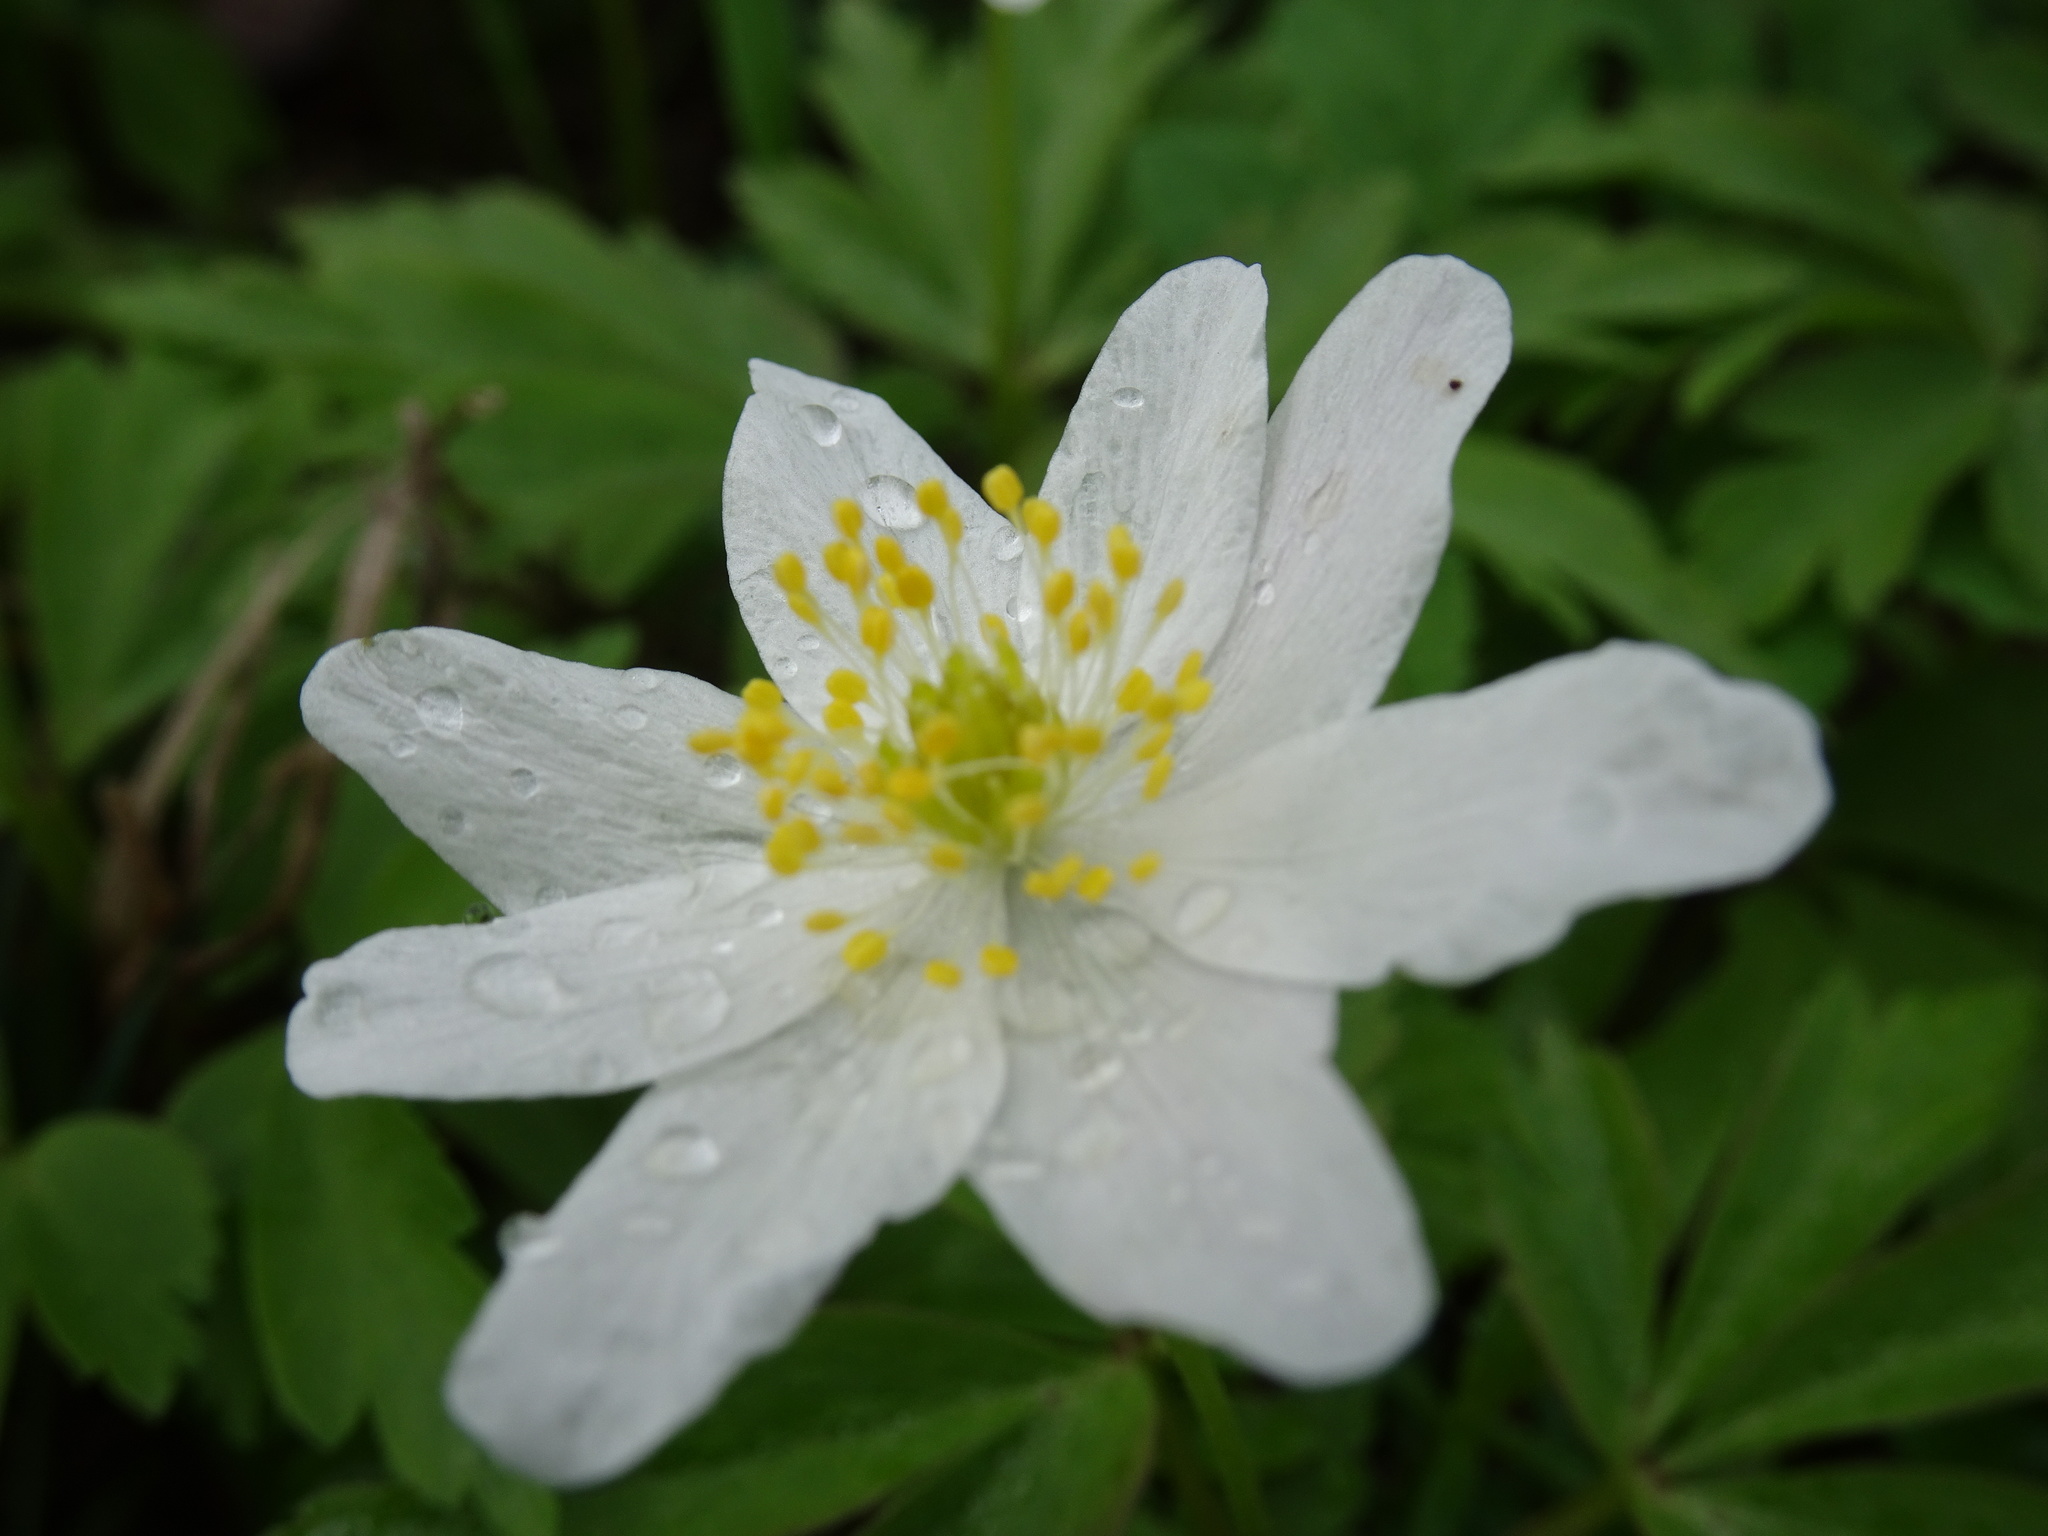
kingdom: Plantae
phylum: Tracheophyta
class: Magnoliopsida
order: Ranunculales
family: Ranunculaceae
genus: Anemone
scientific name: Anemone nemorosa
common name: Wood anemone
